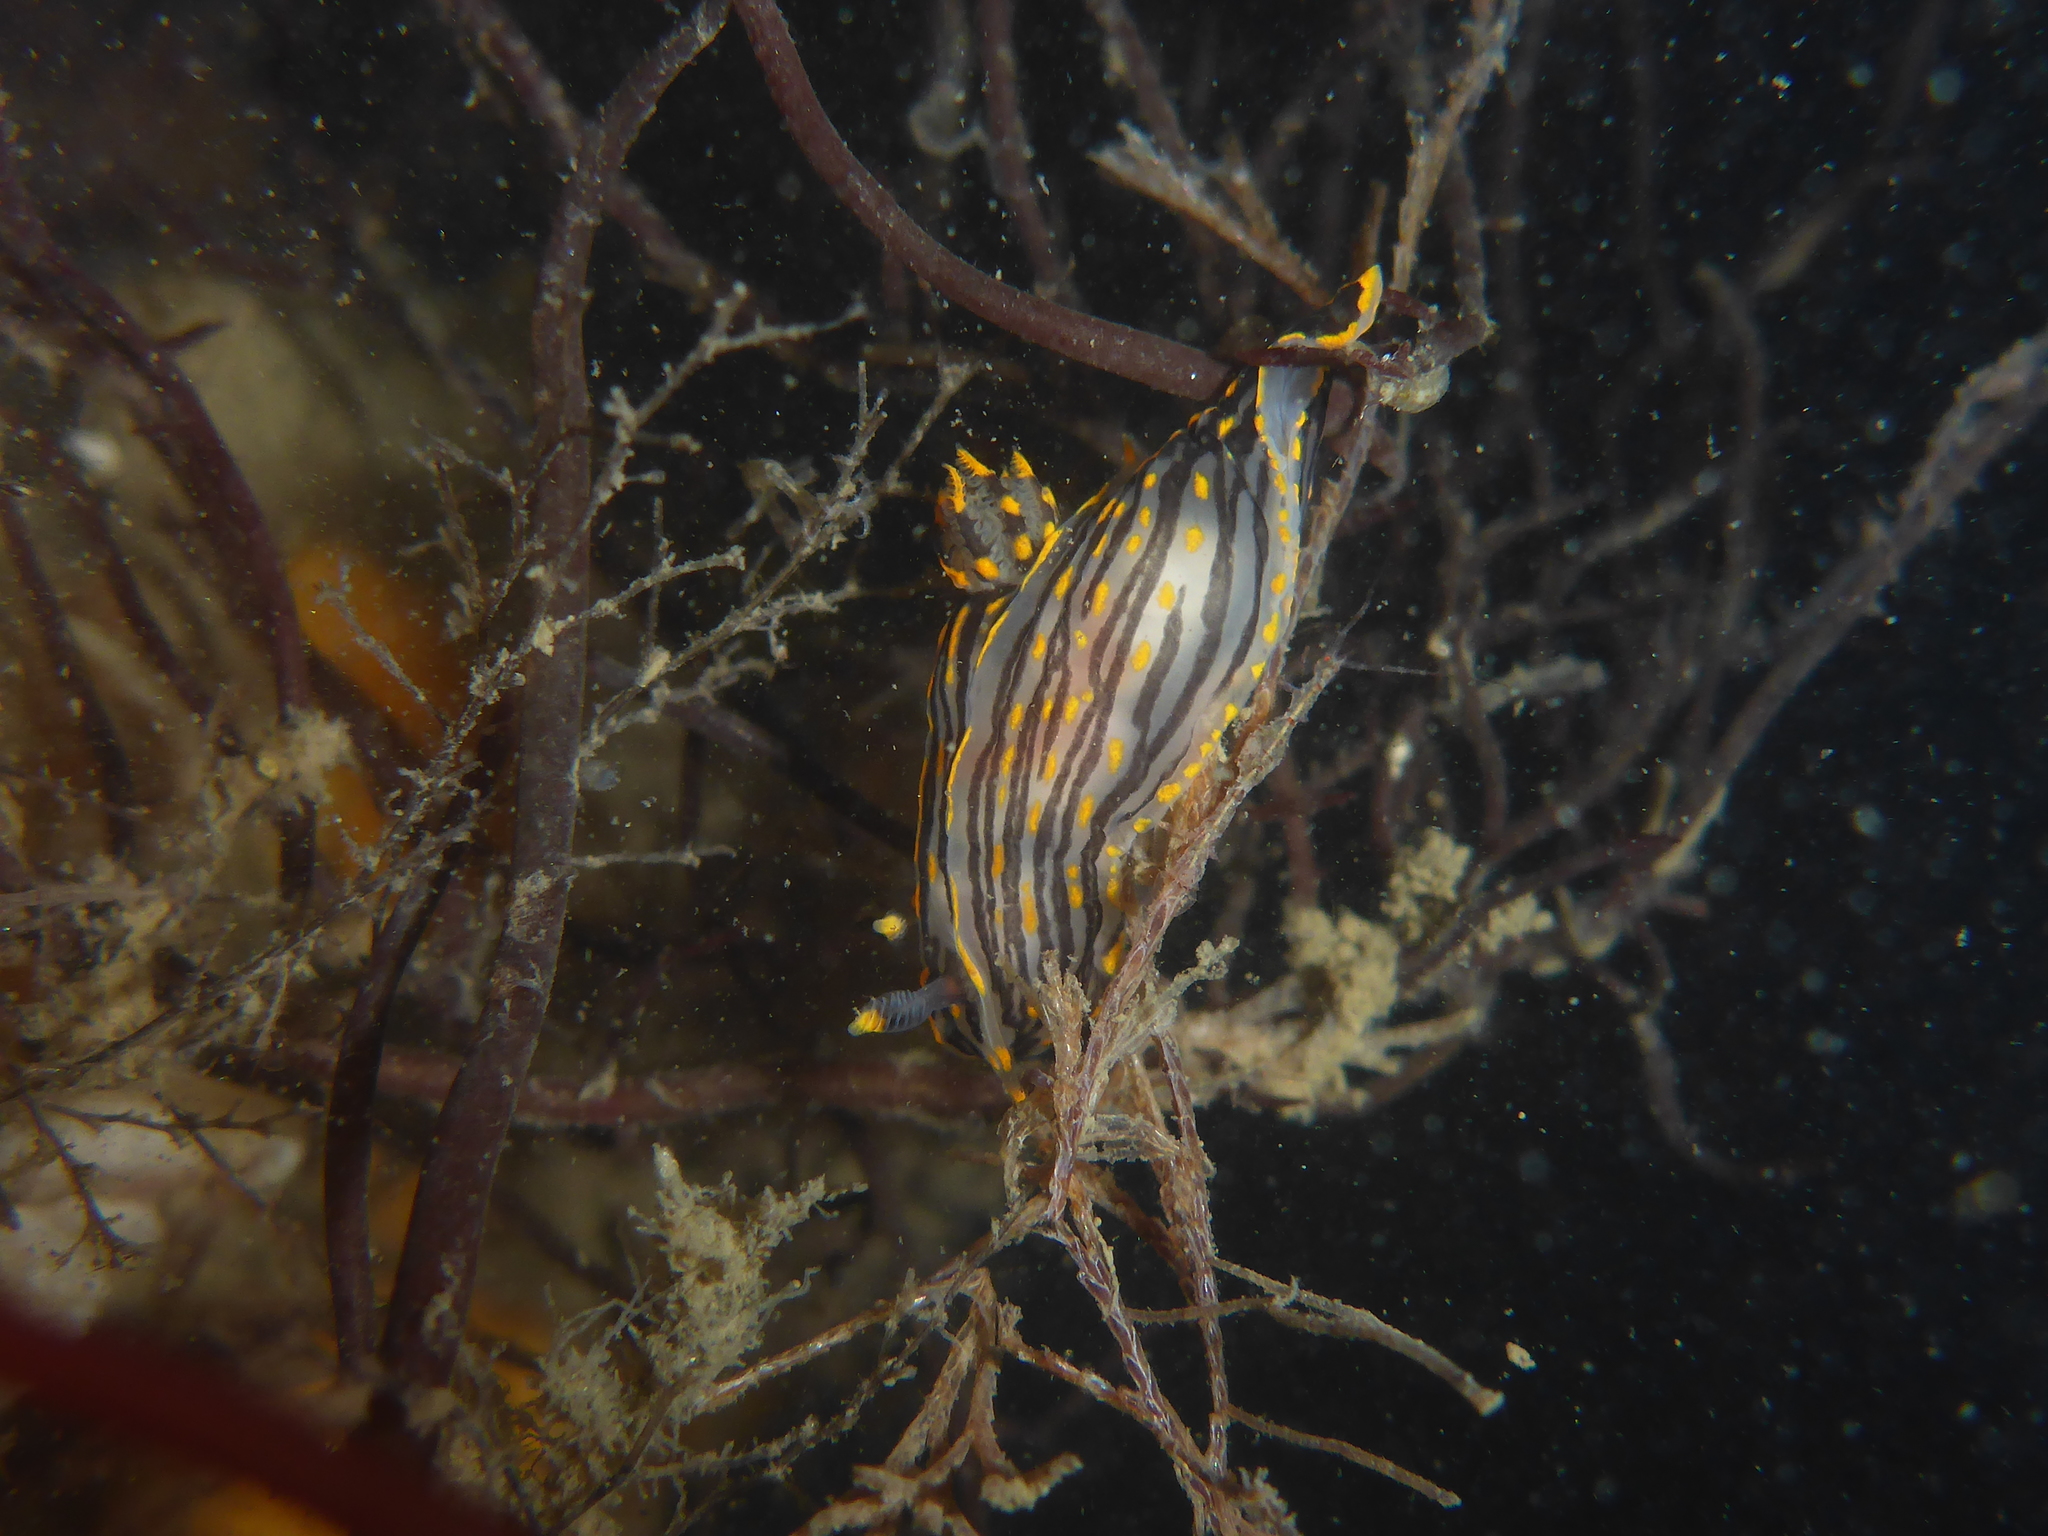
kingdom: Animalia
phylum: Mollusca
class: Gastropoda
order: Nudibranchia
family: Polyceridae
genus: Polycera
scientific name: Polycera atra
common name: Orange-spike polycera
